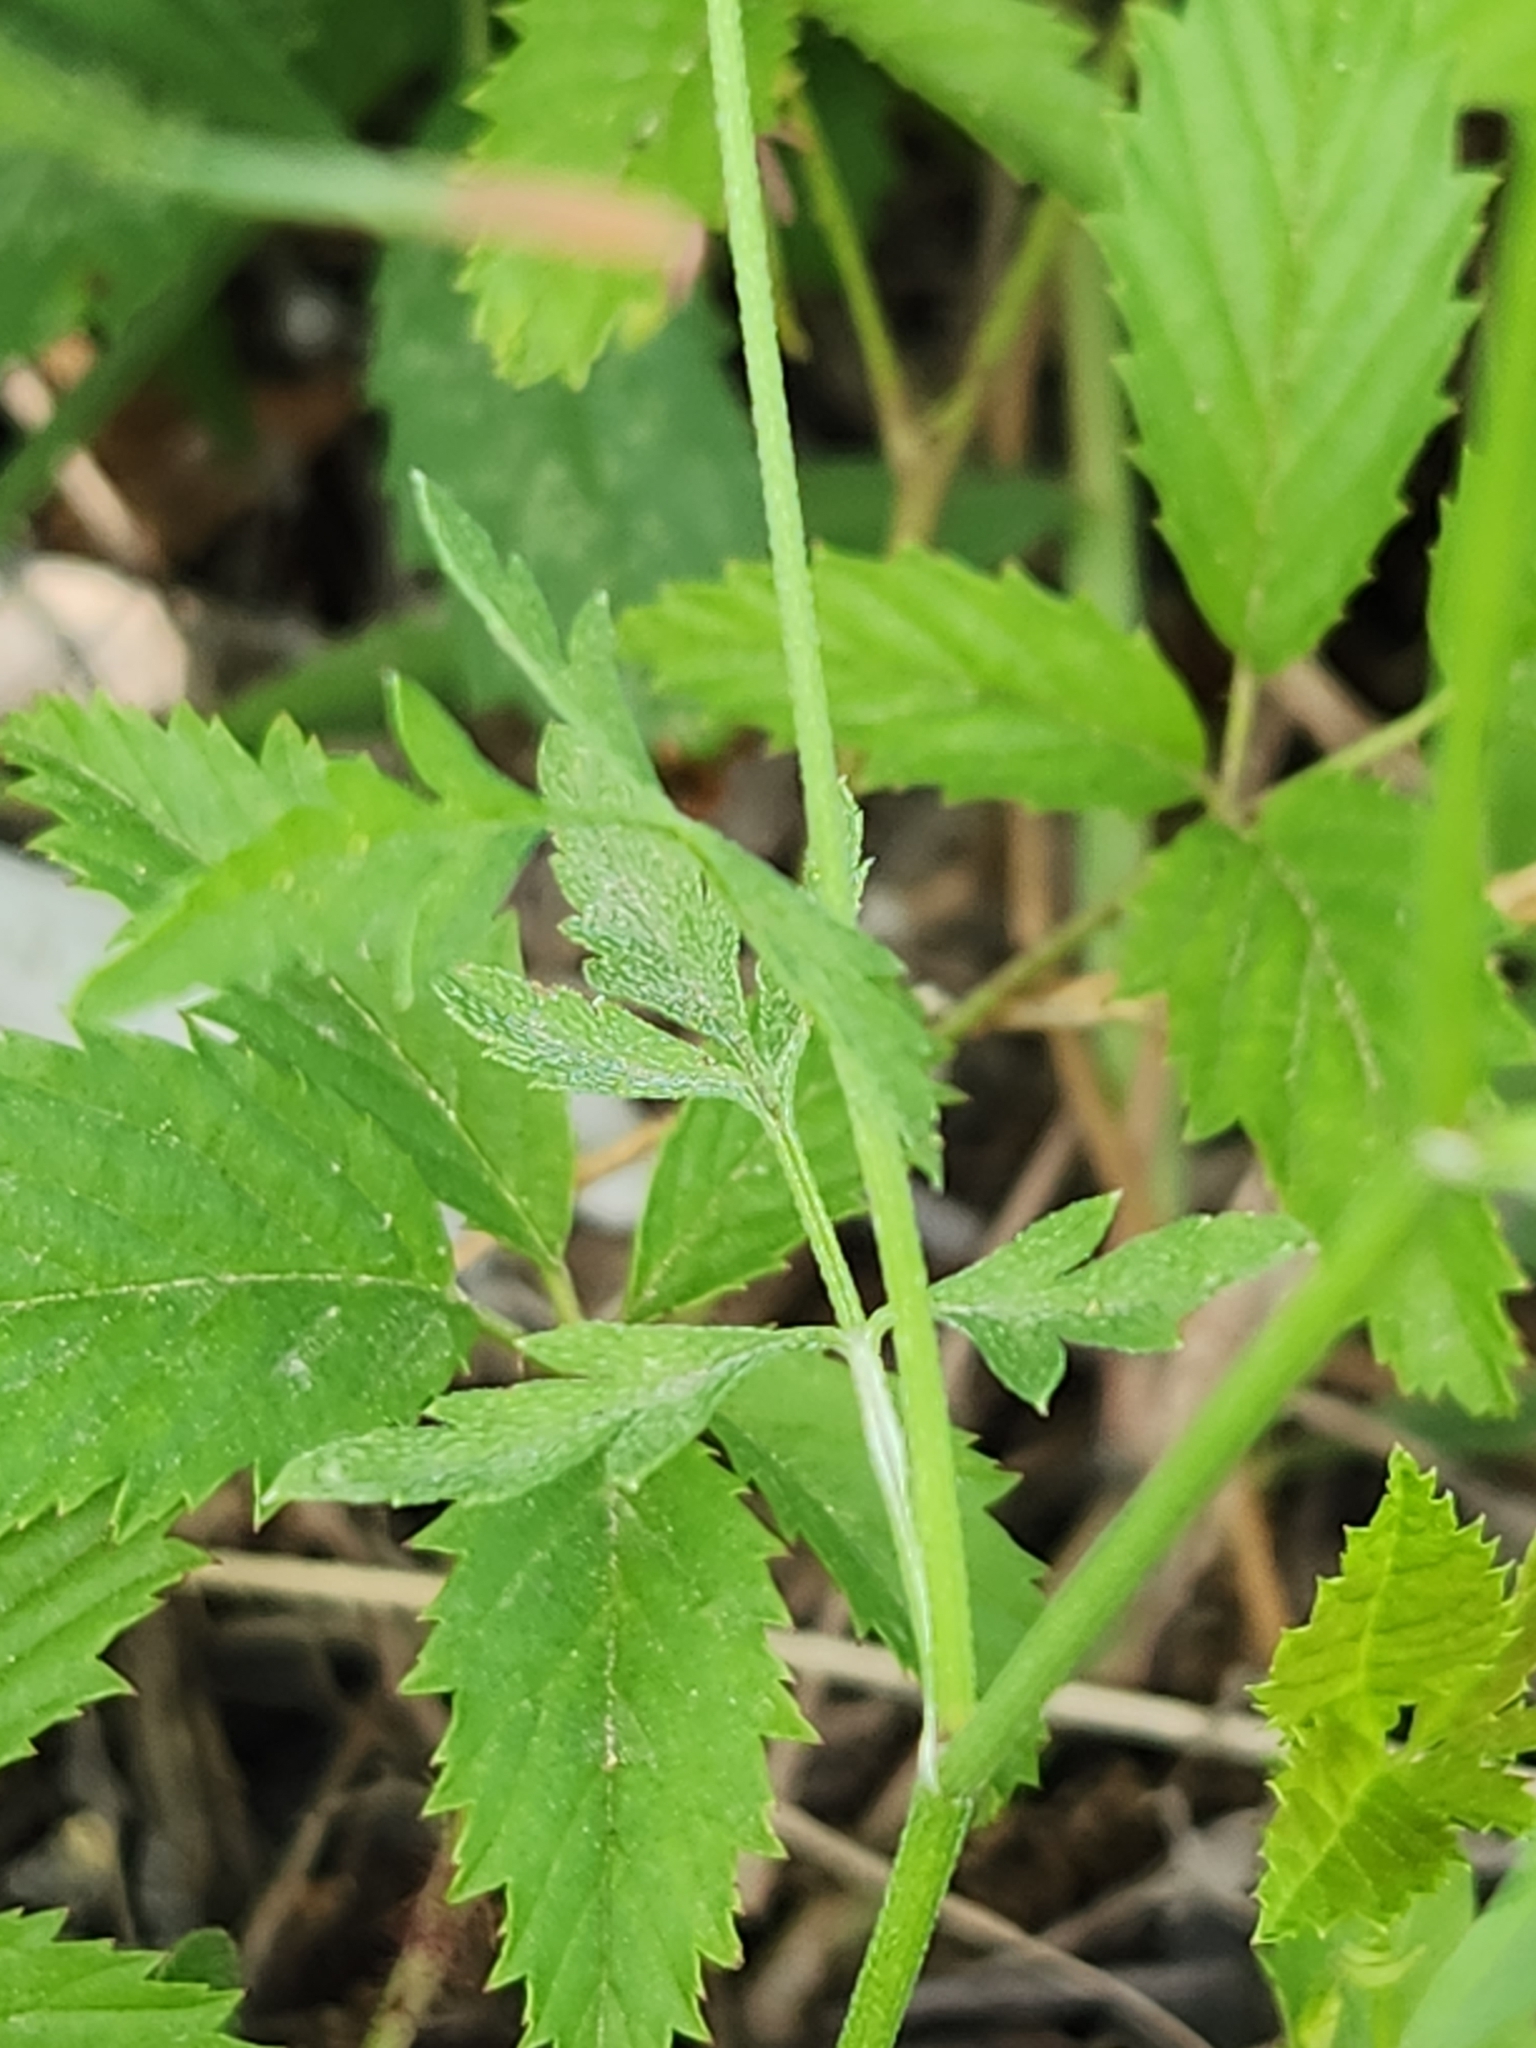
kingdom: Plantae
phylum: Tracheophyta
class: Magnoliopsida
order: Apiales
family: Apiaceae
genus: Torilis
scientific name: Torilis arvensis
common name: Spreading hedge-parsley
